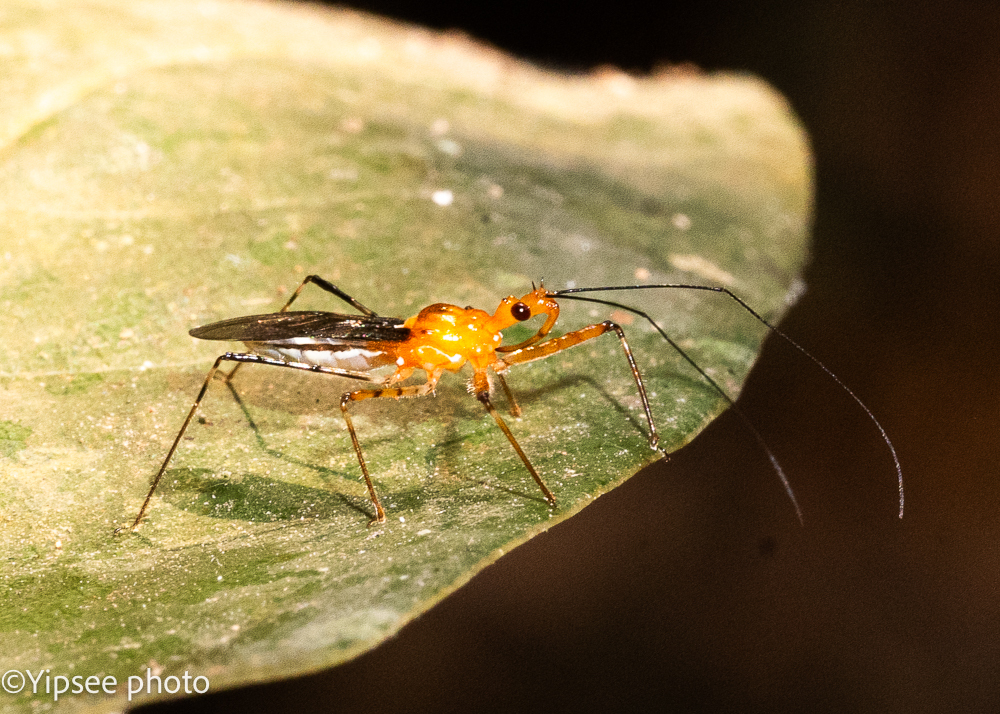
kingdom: Animalia
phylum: Arthropoda
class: Insecta
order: Hemiptera
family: Reduviidae
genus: Macracanthopsis
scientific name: Macracanthopsis nodipes
